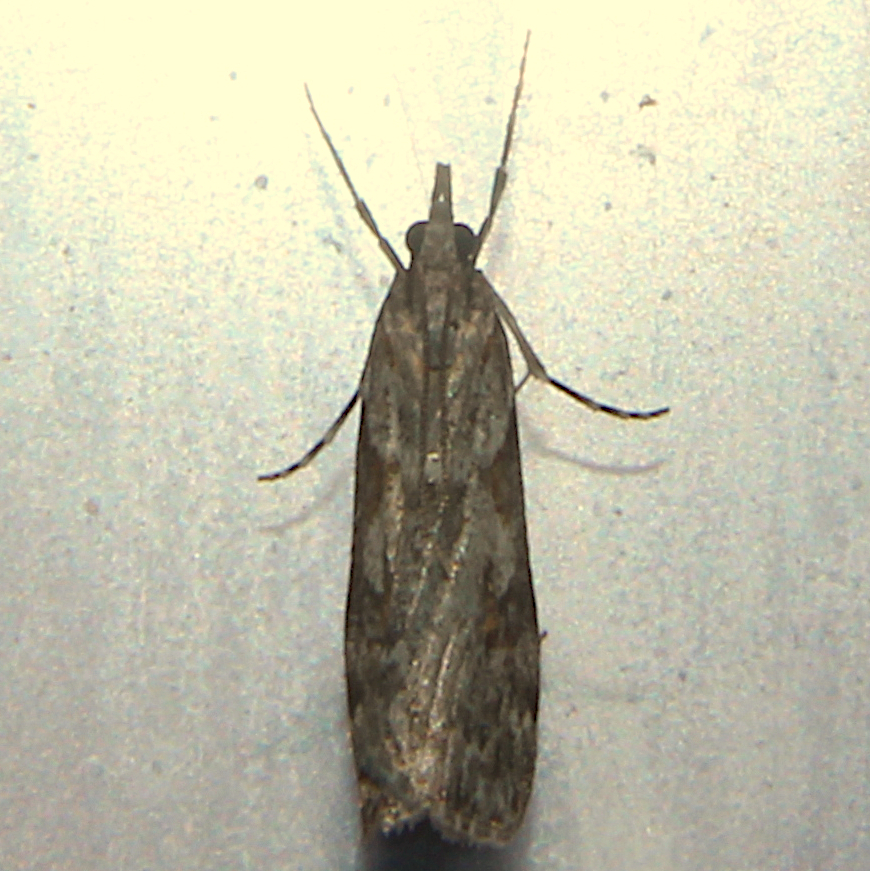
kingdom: Animalia
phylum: Arthropoda
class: Insecta
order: Lepidoptera
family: Crambidae
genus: Scoparia
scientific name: Scoparia halopis
